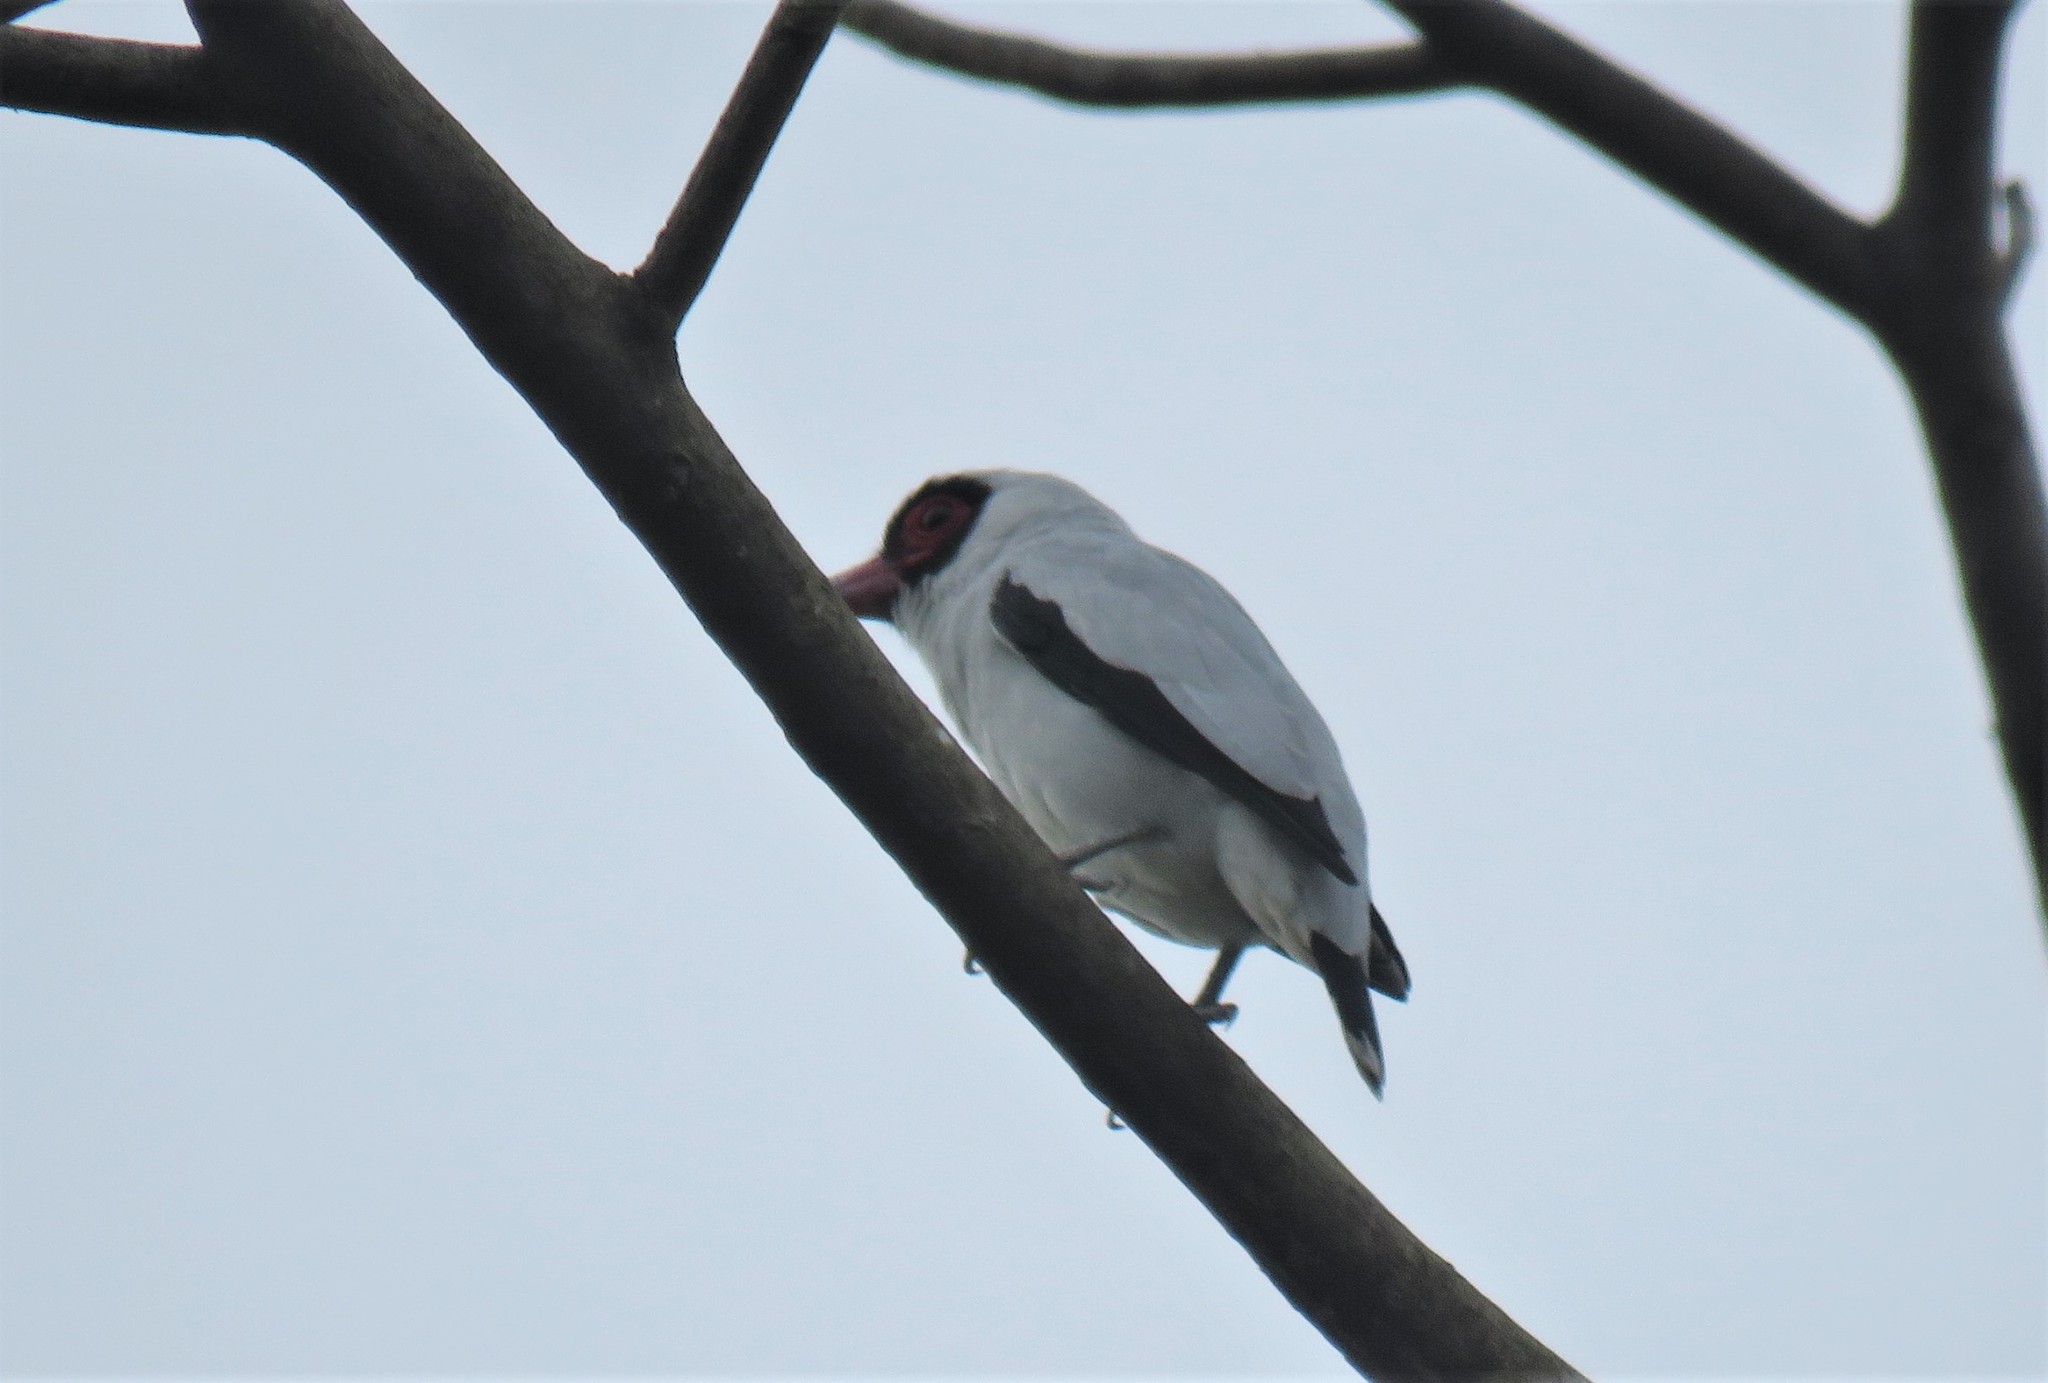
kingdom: Animalia
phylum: Chordata
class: Aves
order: Passeriformes
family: Cotingidae
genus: Tityra
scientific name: Tityra semifasciata
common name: Masked tityra
